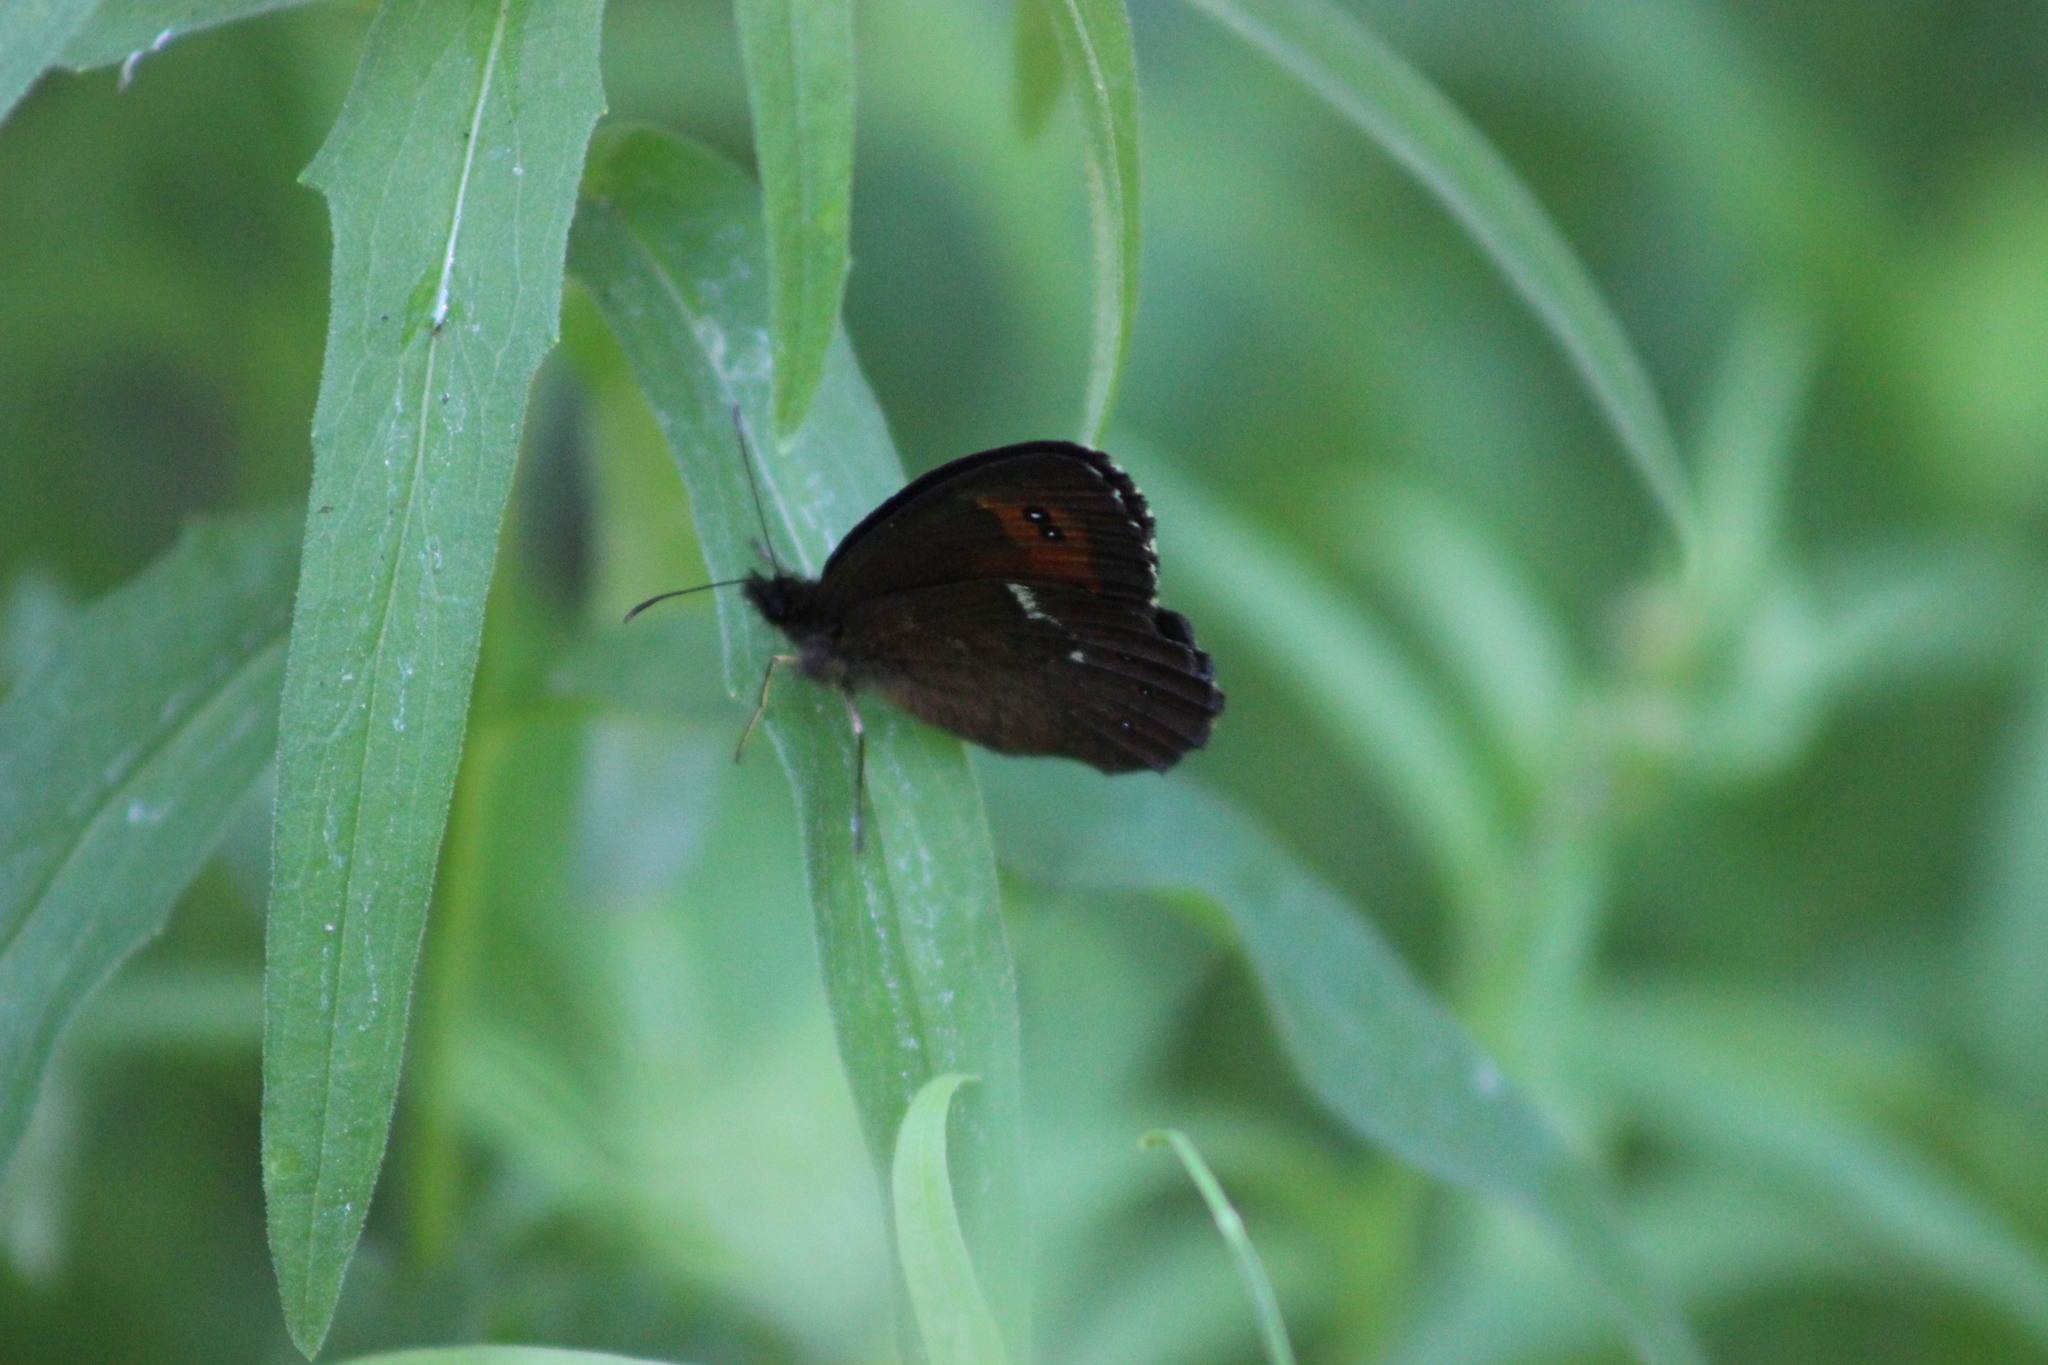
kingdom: Animalia
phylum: Arthropoda
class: Insecta
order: Lepidoptera
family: Nymphalidae
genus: Erebia
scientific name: Erebia ligea
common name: Arran brown
